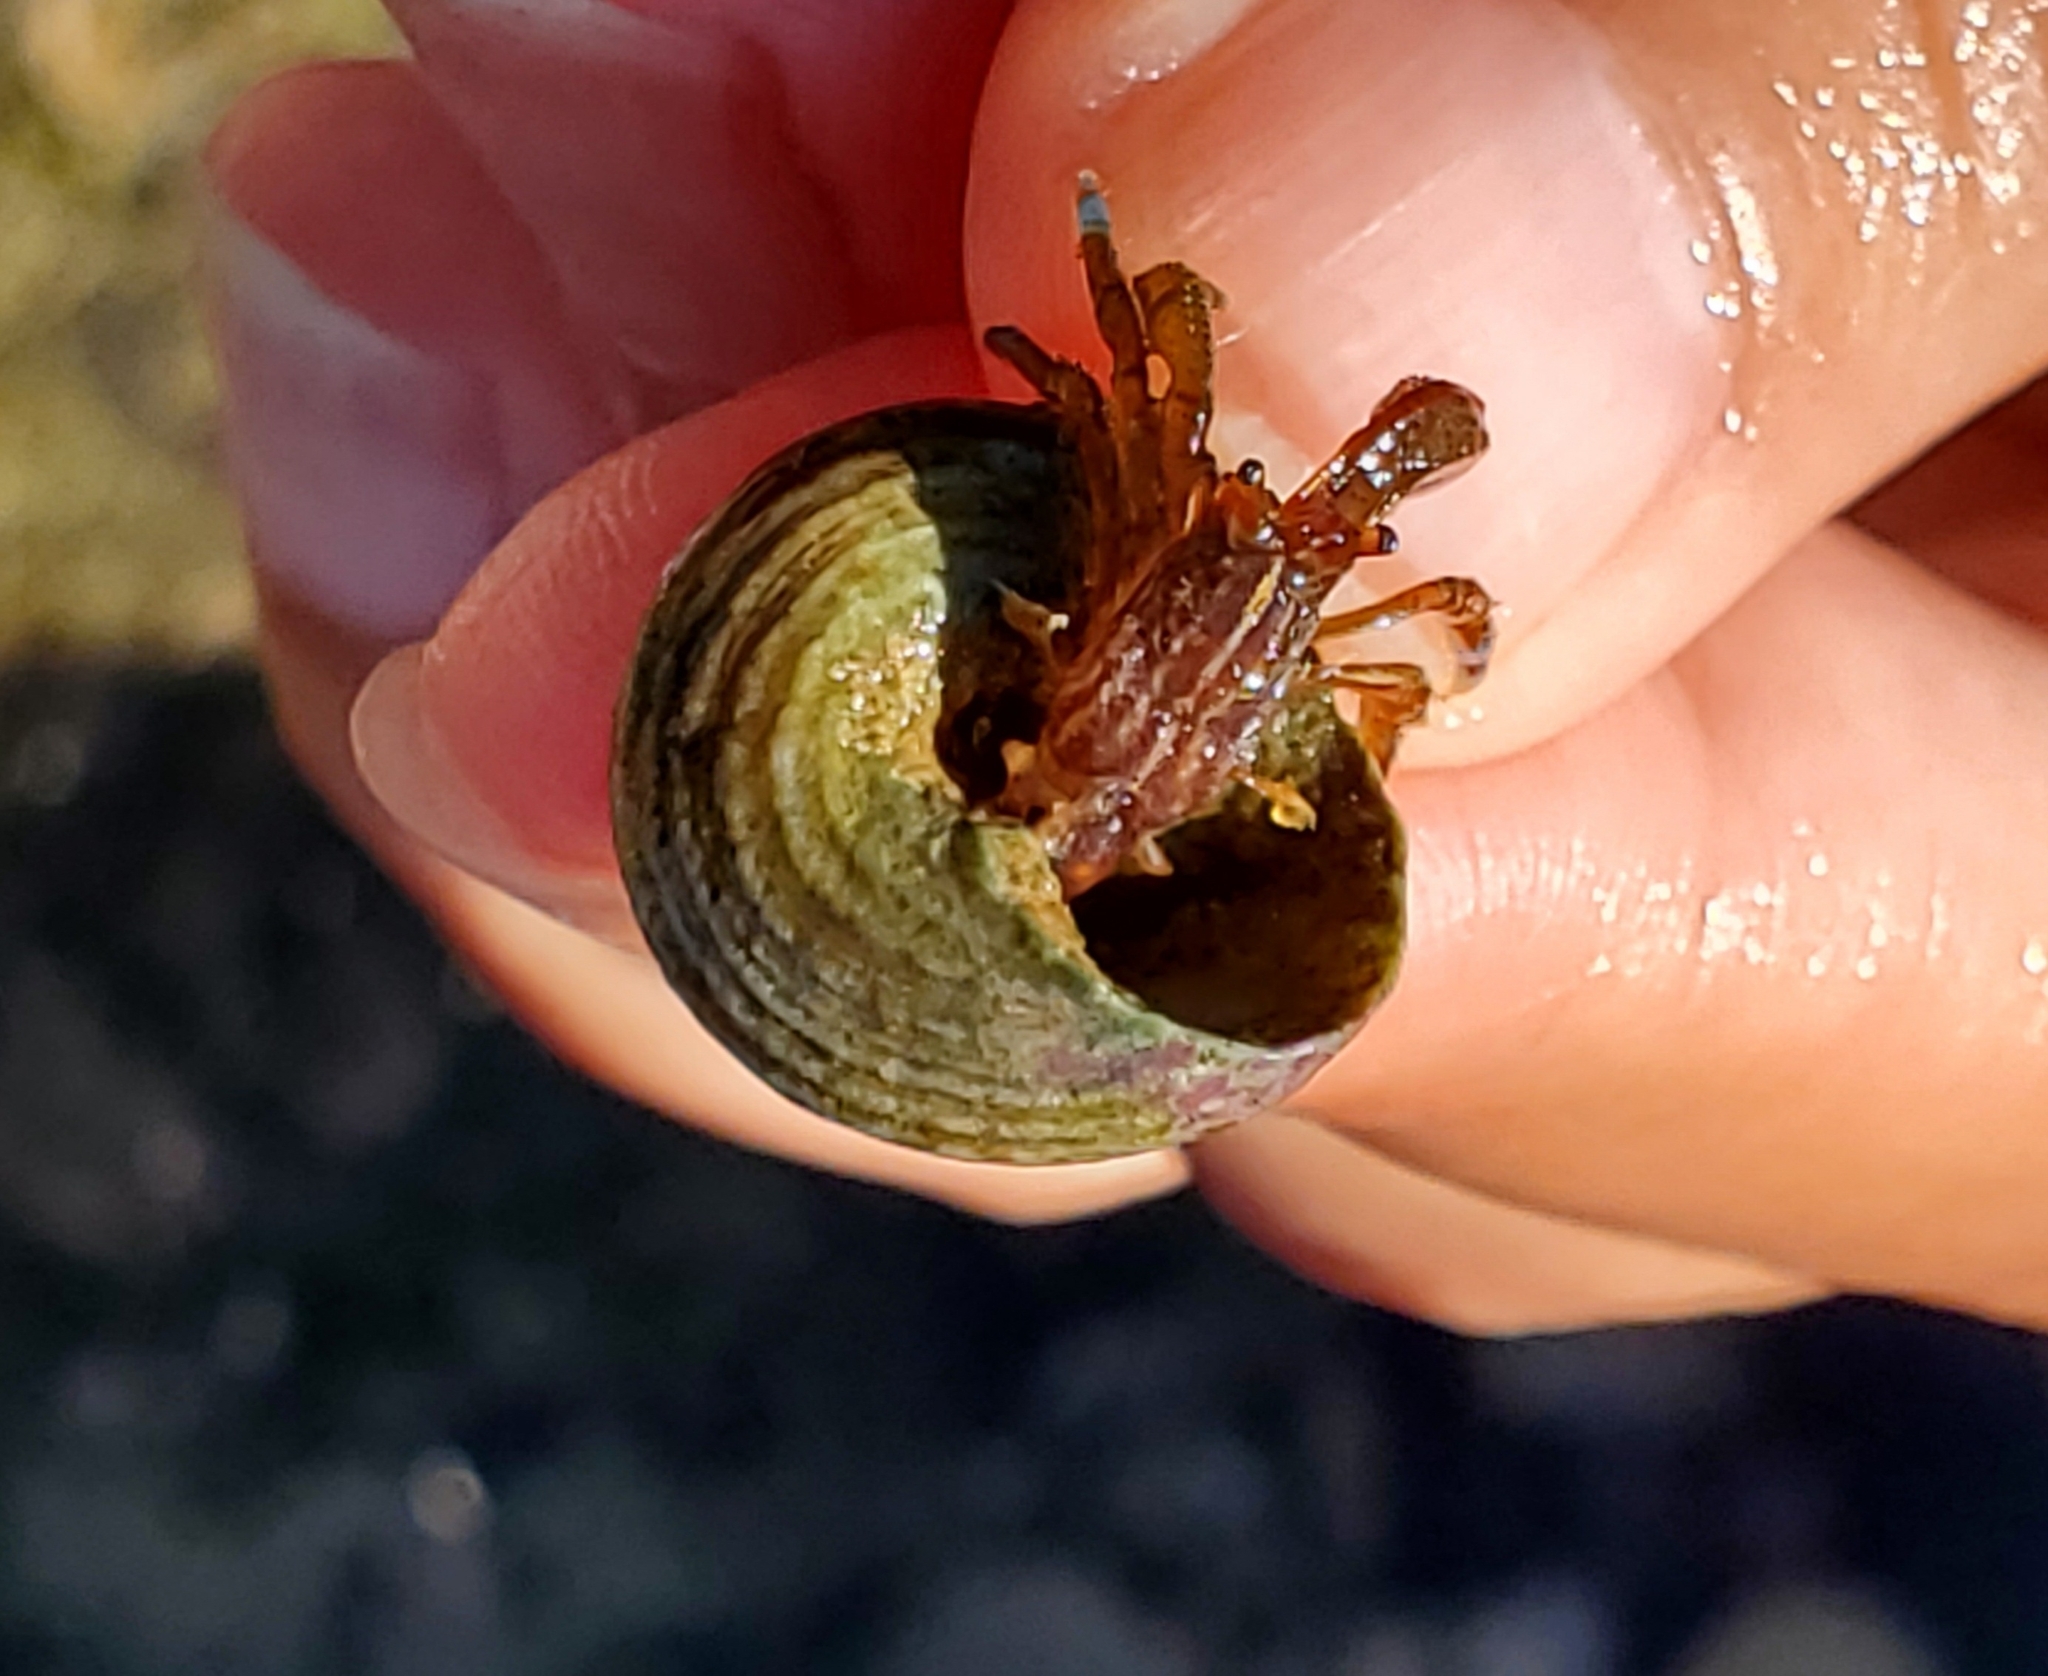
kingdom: Animalia
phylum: Arthropoda
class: Malacostraca
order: Decapoda
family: Paguridae
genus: Pagurus
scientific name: Pagurus samuelis
